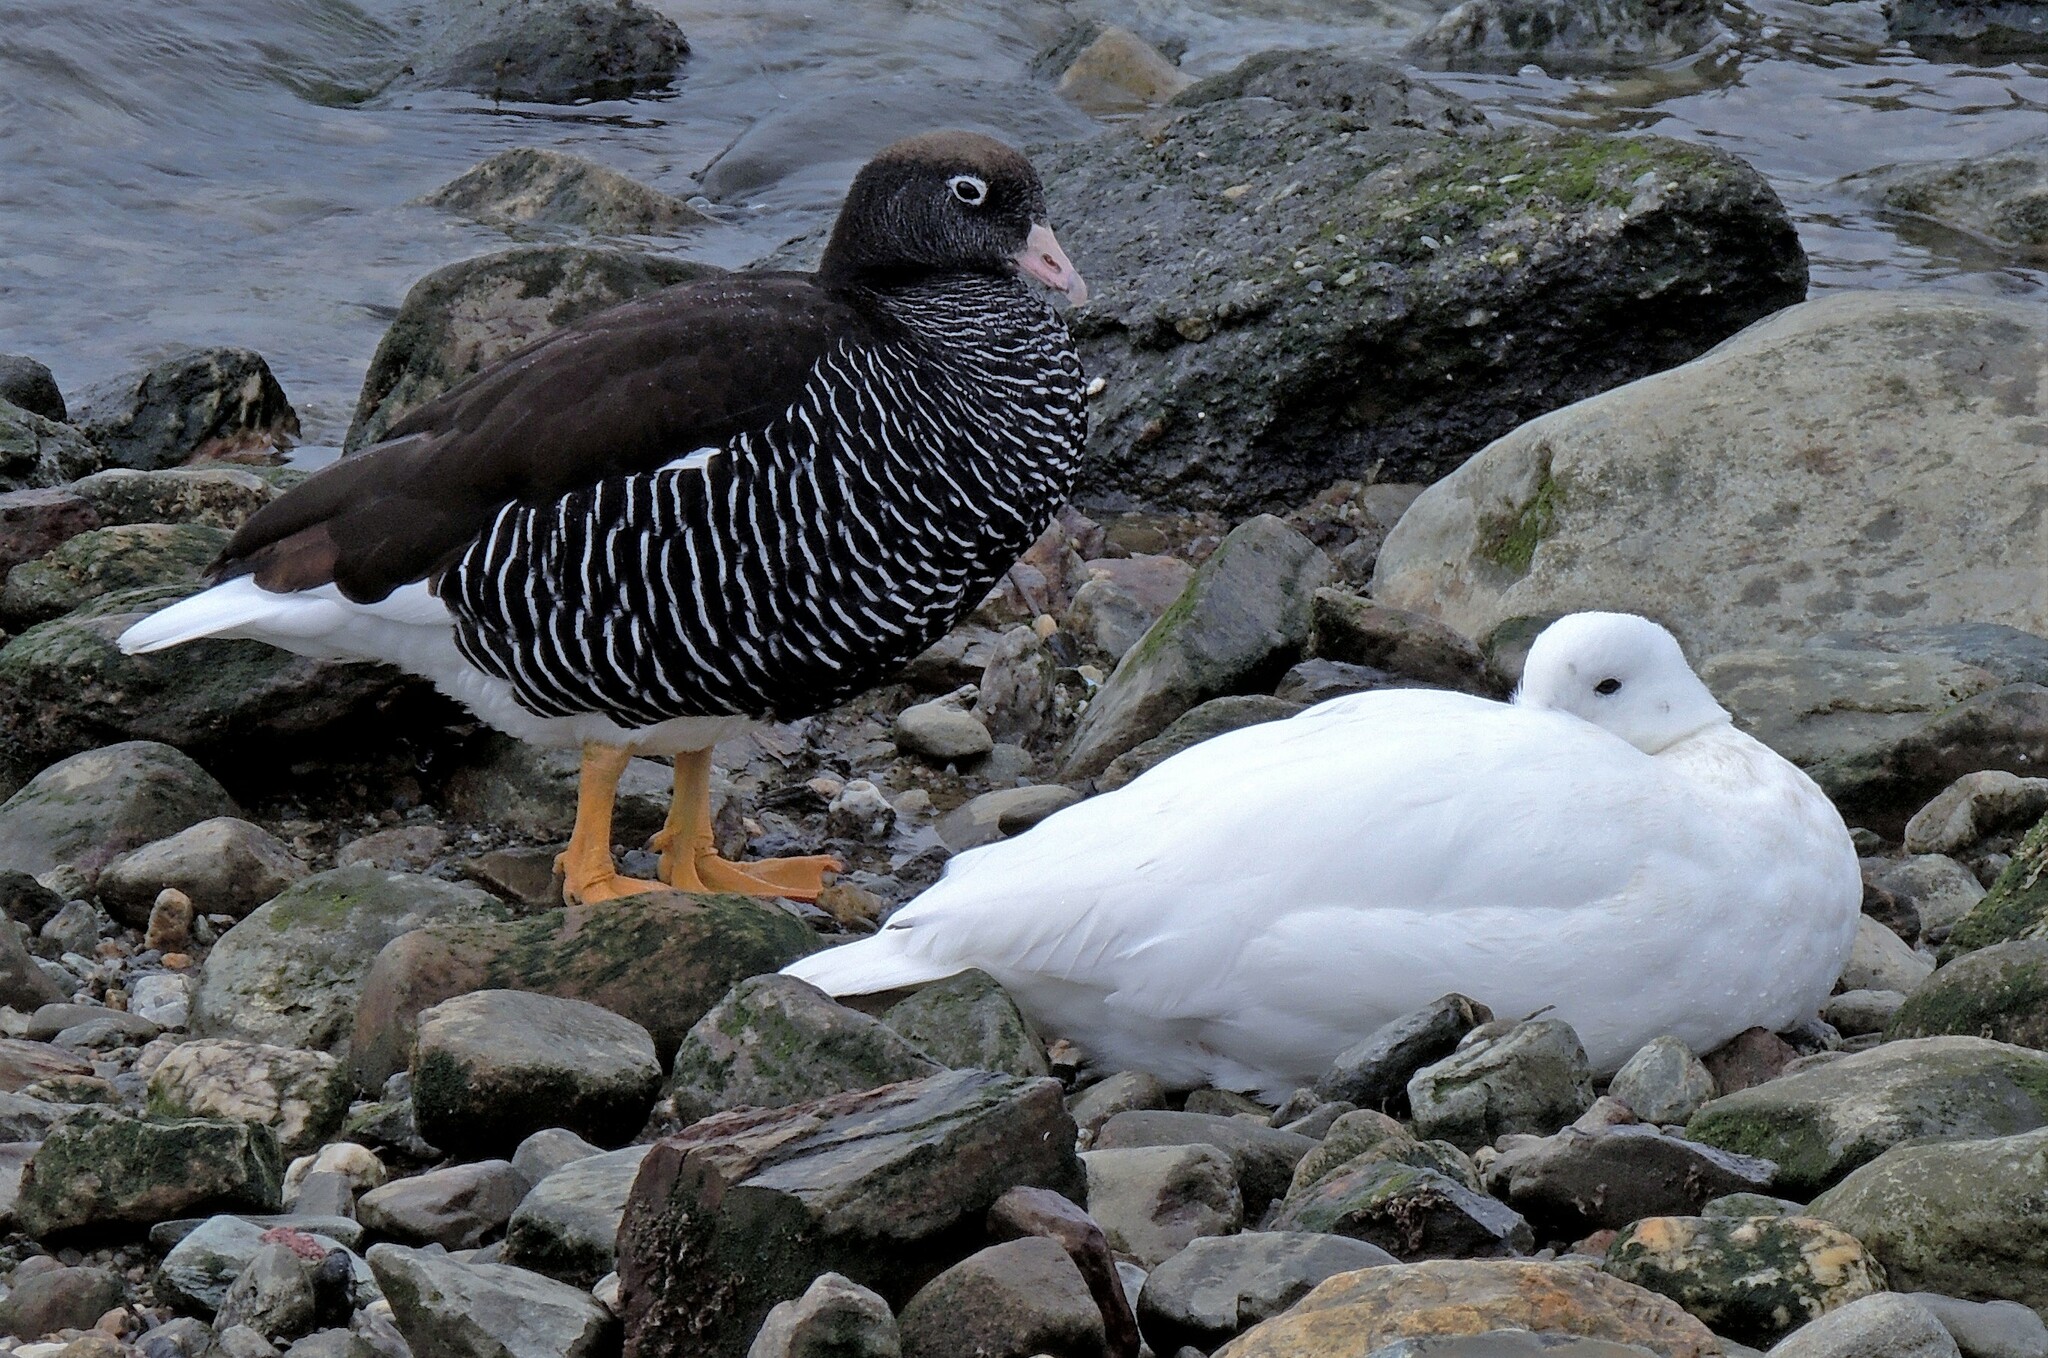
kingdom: Animalia
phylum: Chordata
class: Aves
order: Anseriformes
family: Anatidae
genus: Chloephaga
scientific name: Chloephaga hybrida
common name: Kelp goose
